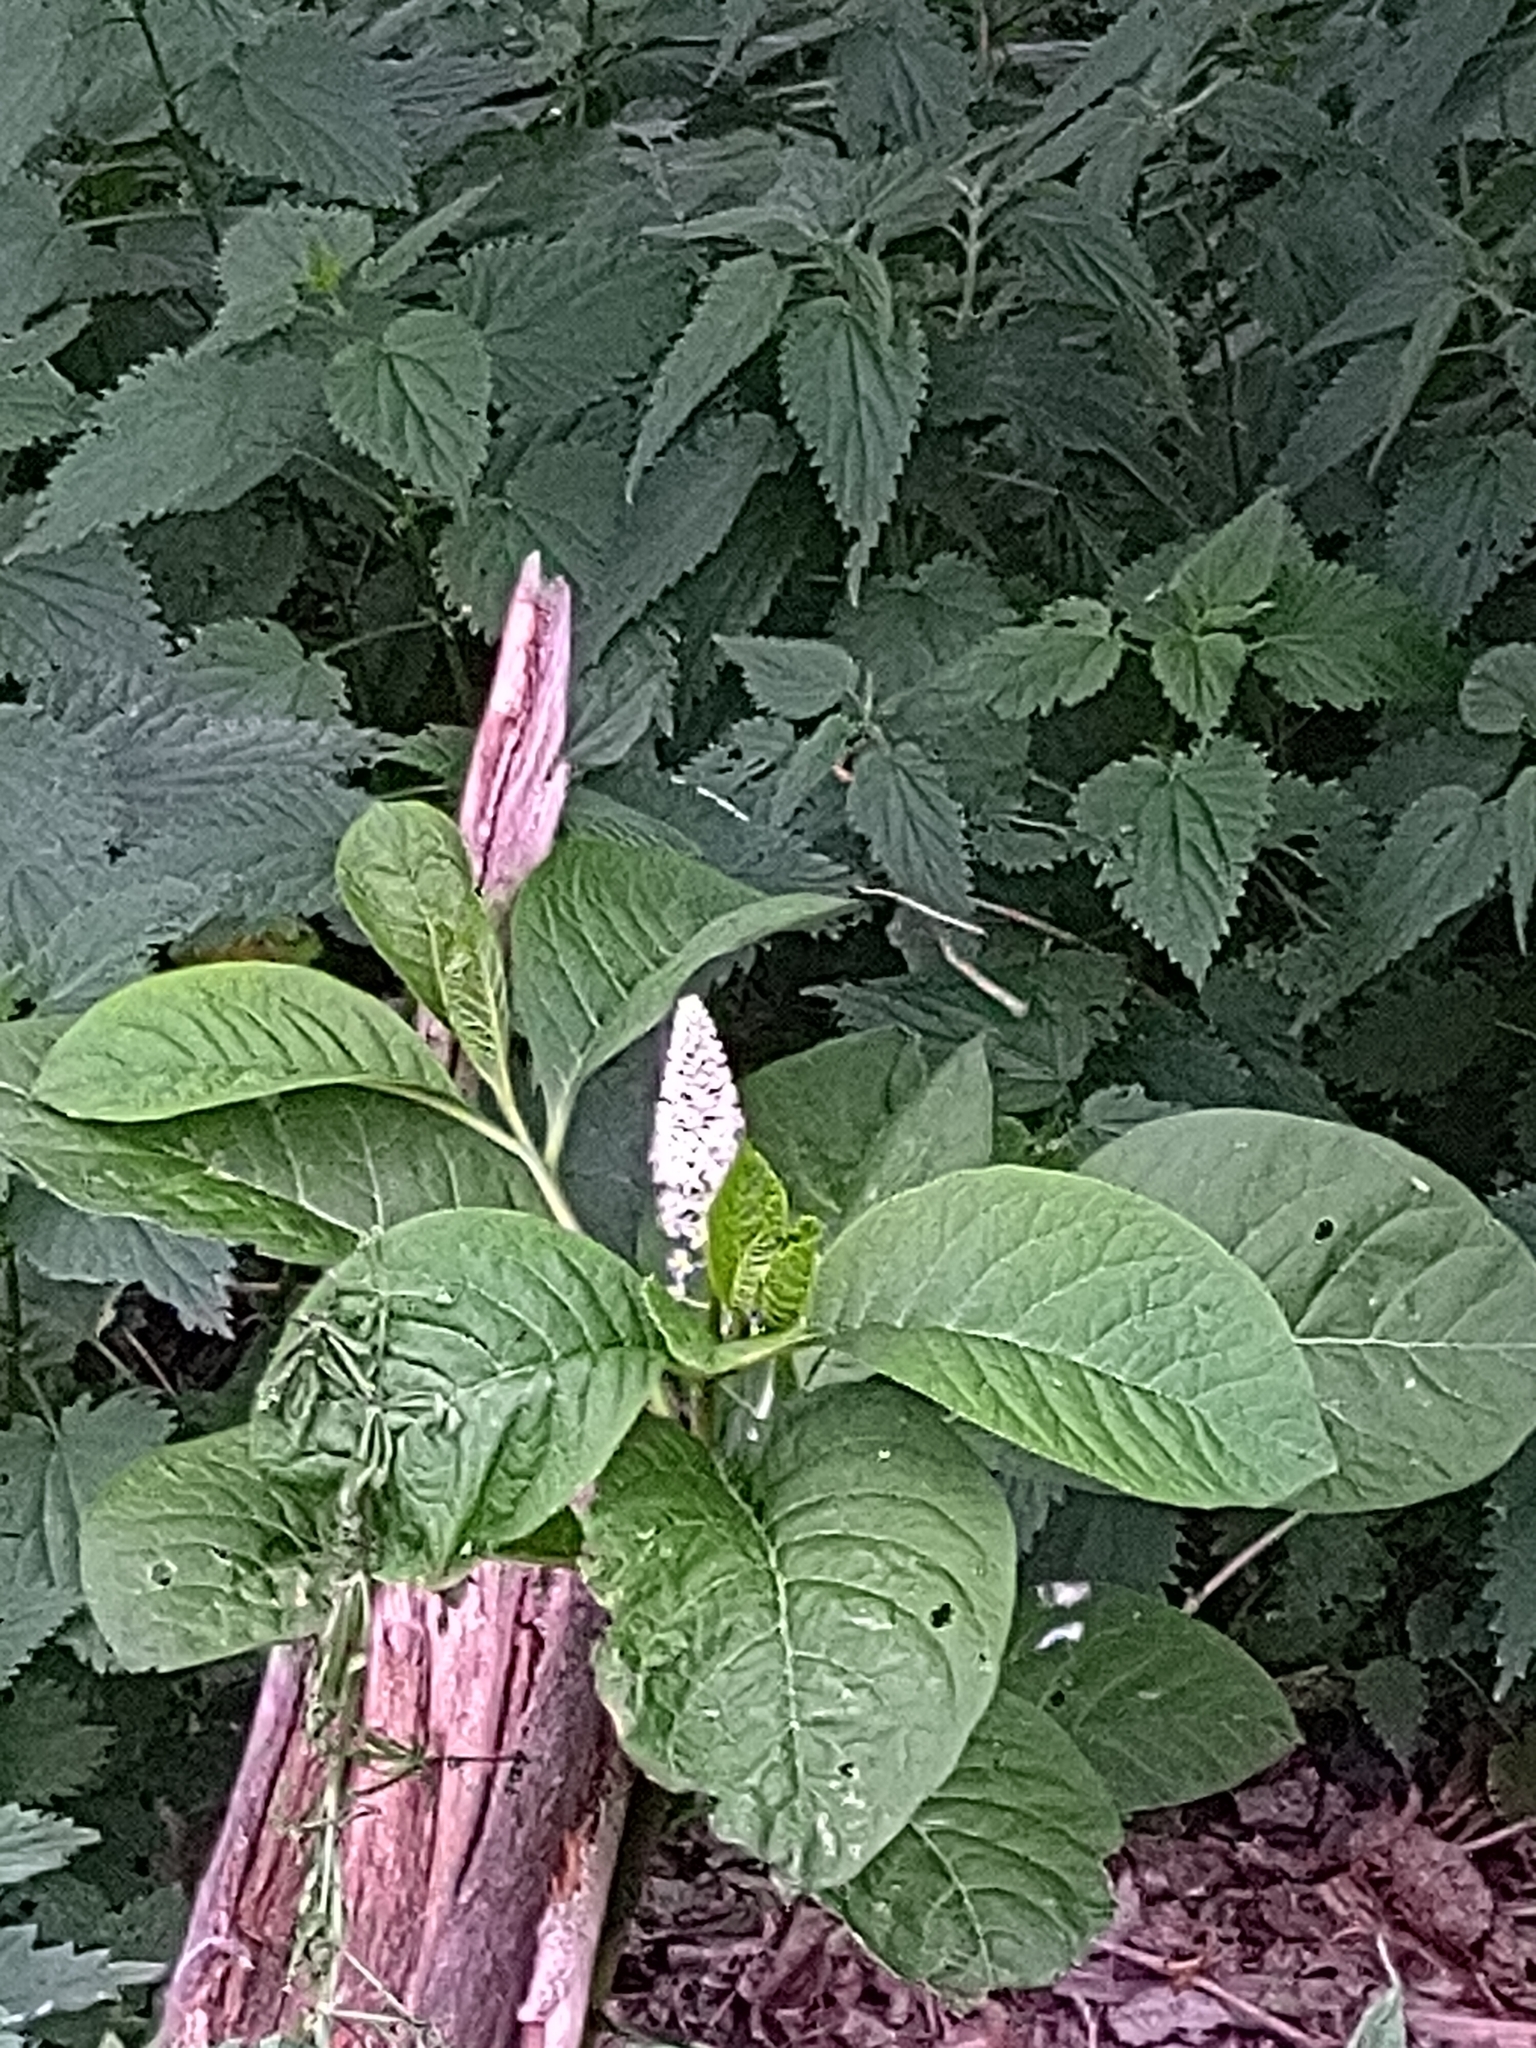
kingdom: Plantae
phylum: Tracheophyta
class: Magnoliopsida
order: Caryophyllales
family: Phytolaccaceae
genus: Phytolacca
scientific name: Phytolacca acinosa
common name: Indian pokeweed
